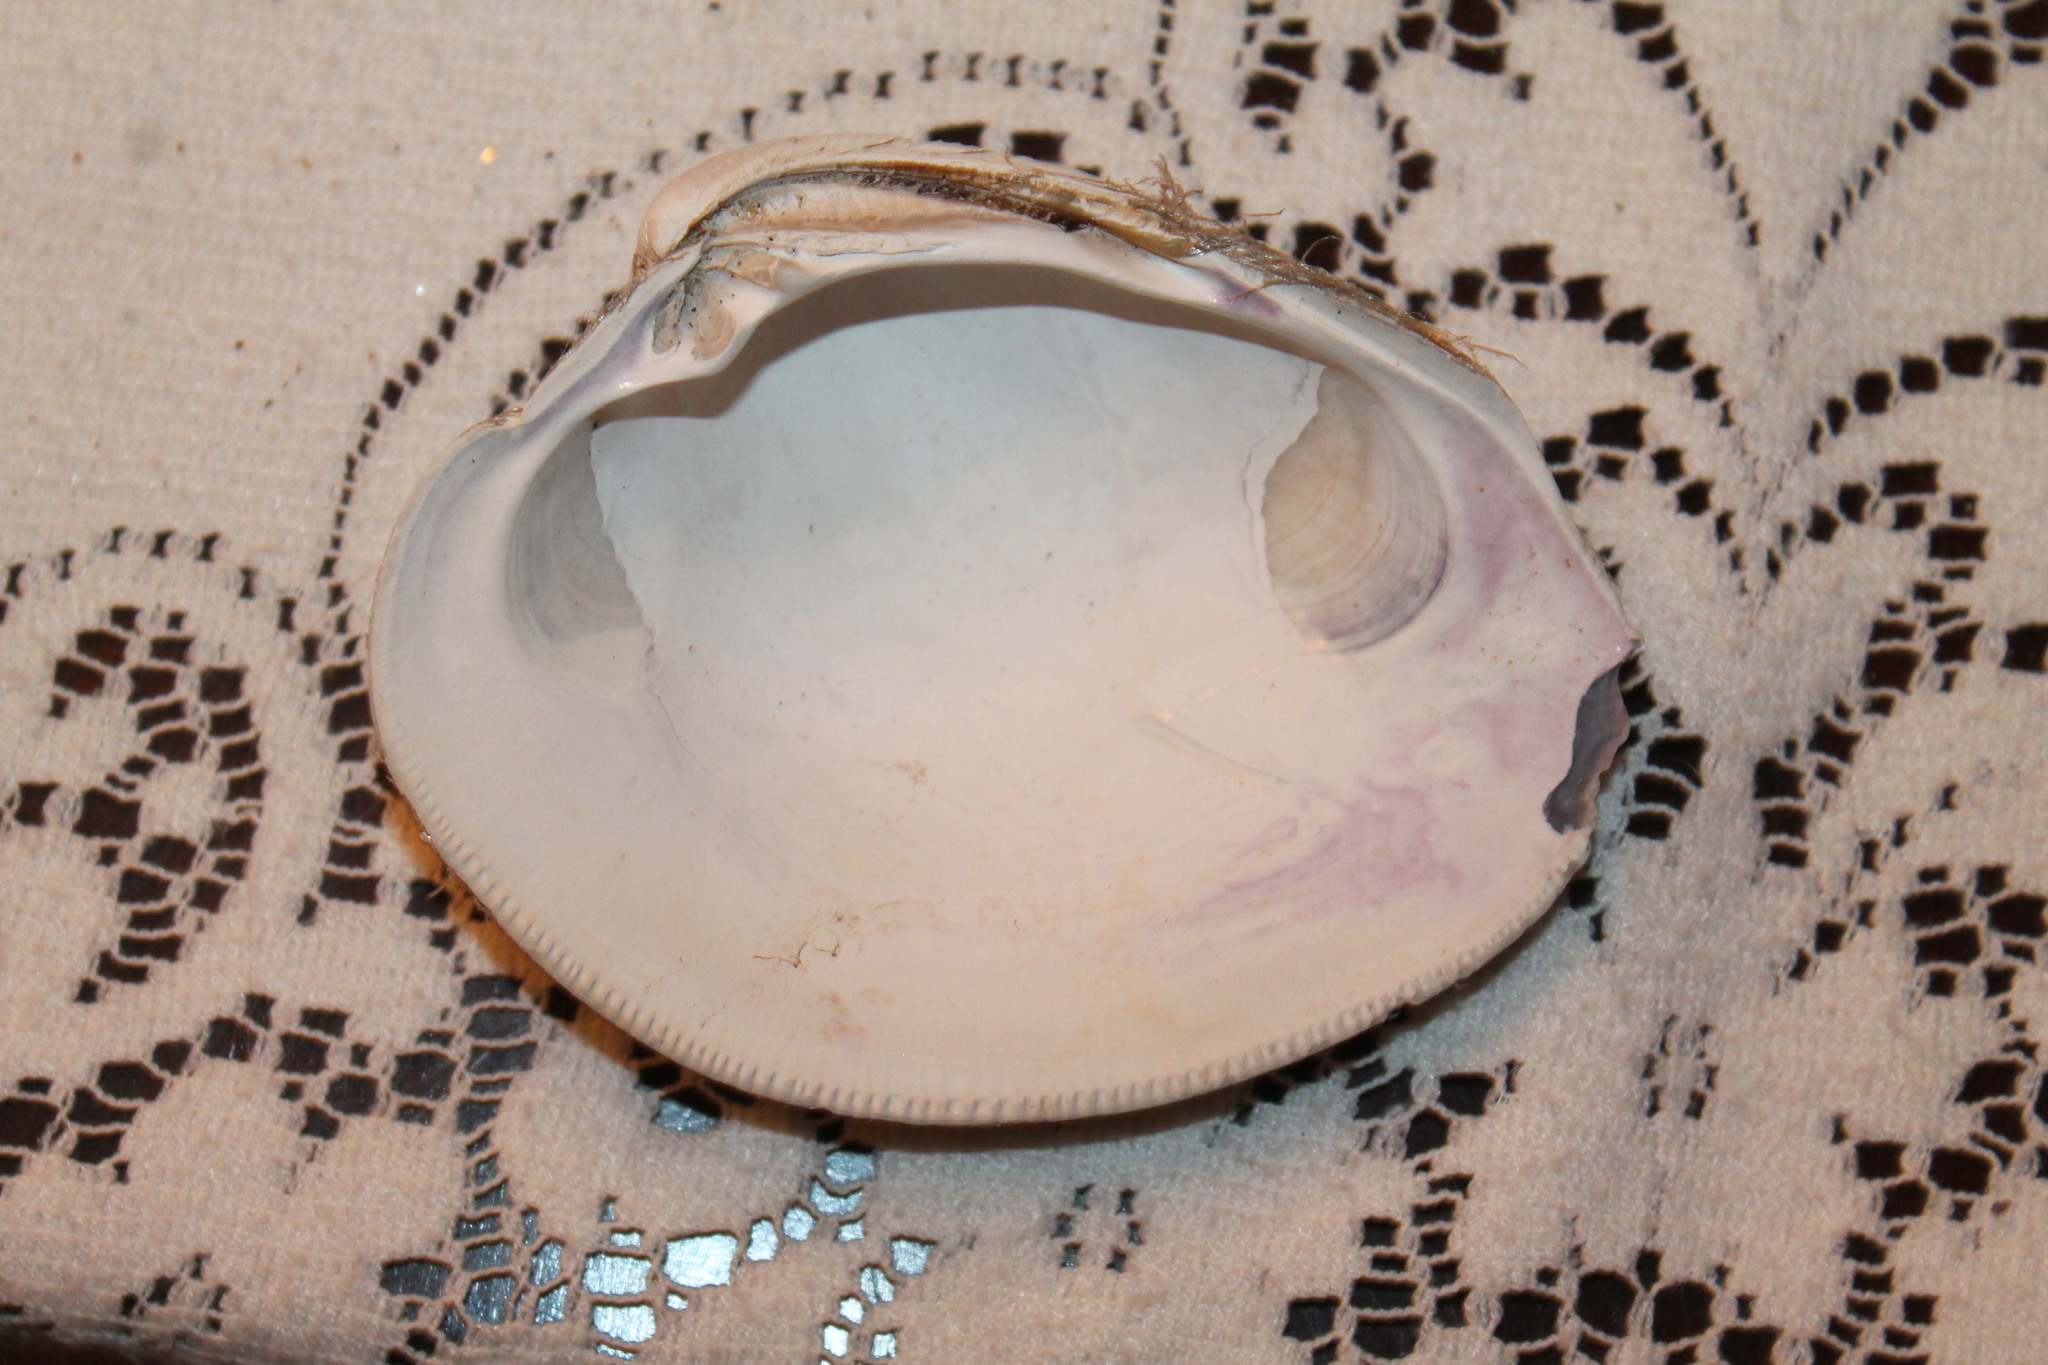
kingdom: Animalia
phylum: Mollusca
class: Bivalvia
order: Venerida
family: Veneridae
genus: Mercenaria
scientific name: Mercenaria mercenaria
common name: American hard-shelled clam
